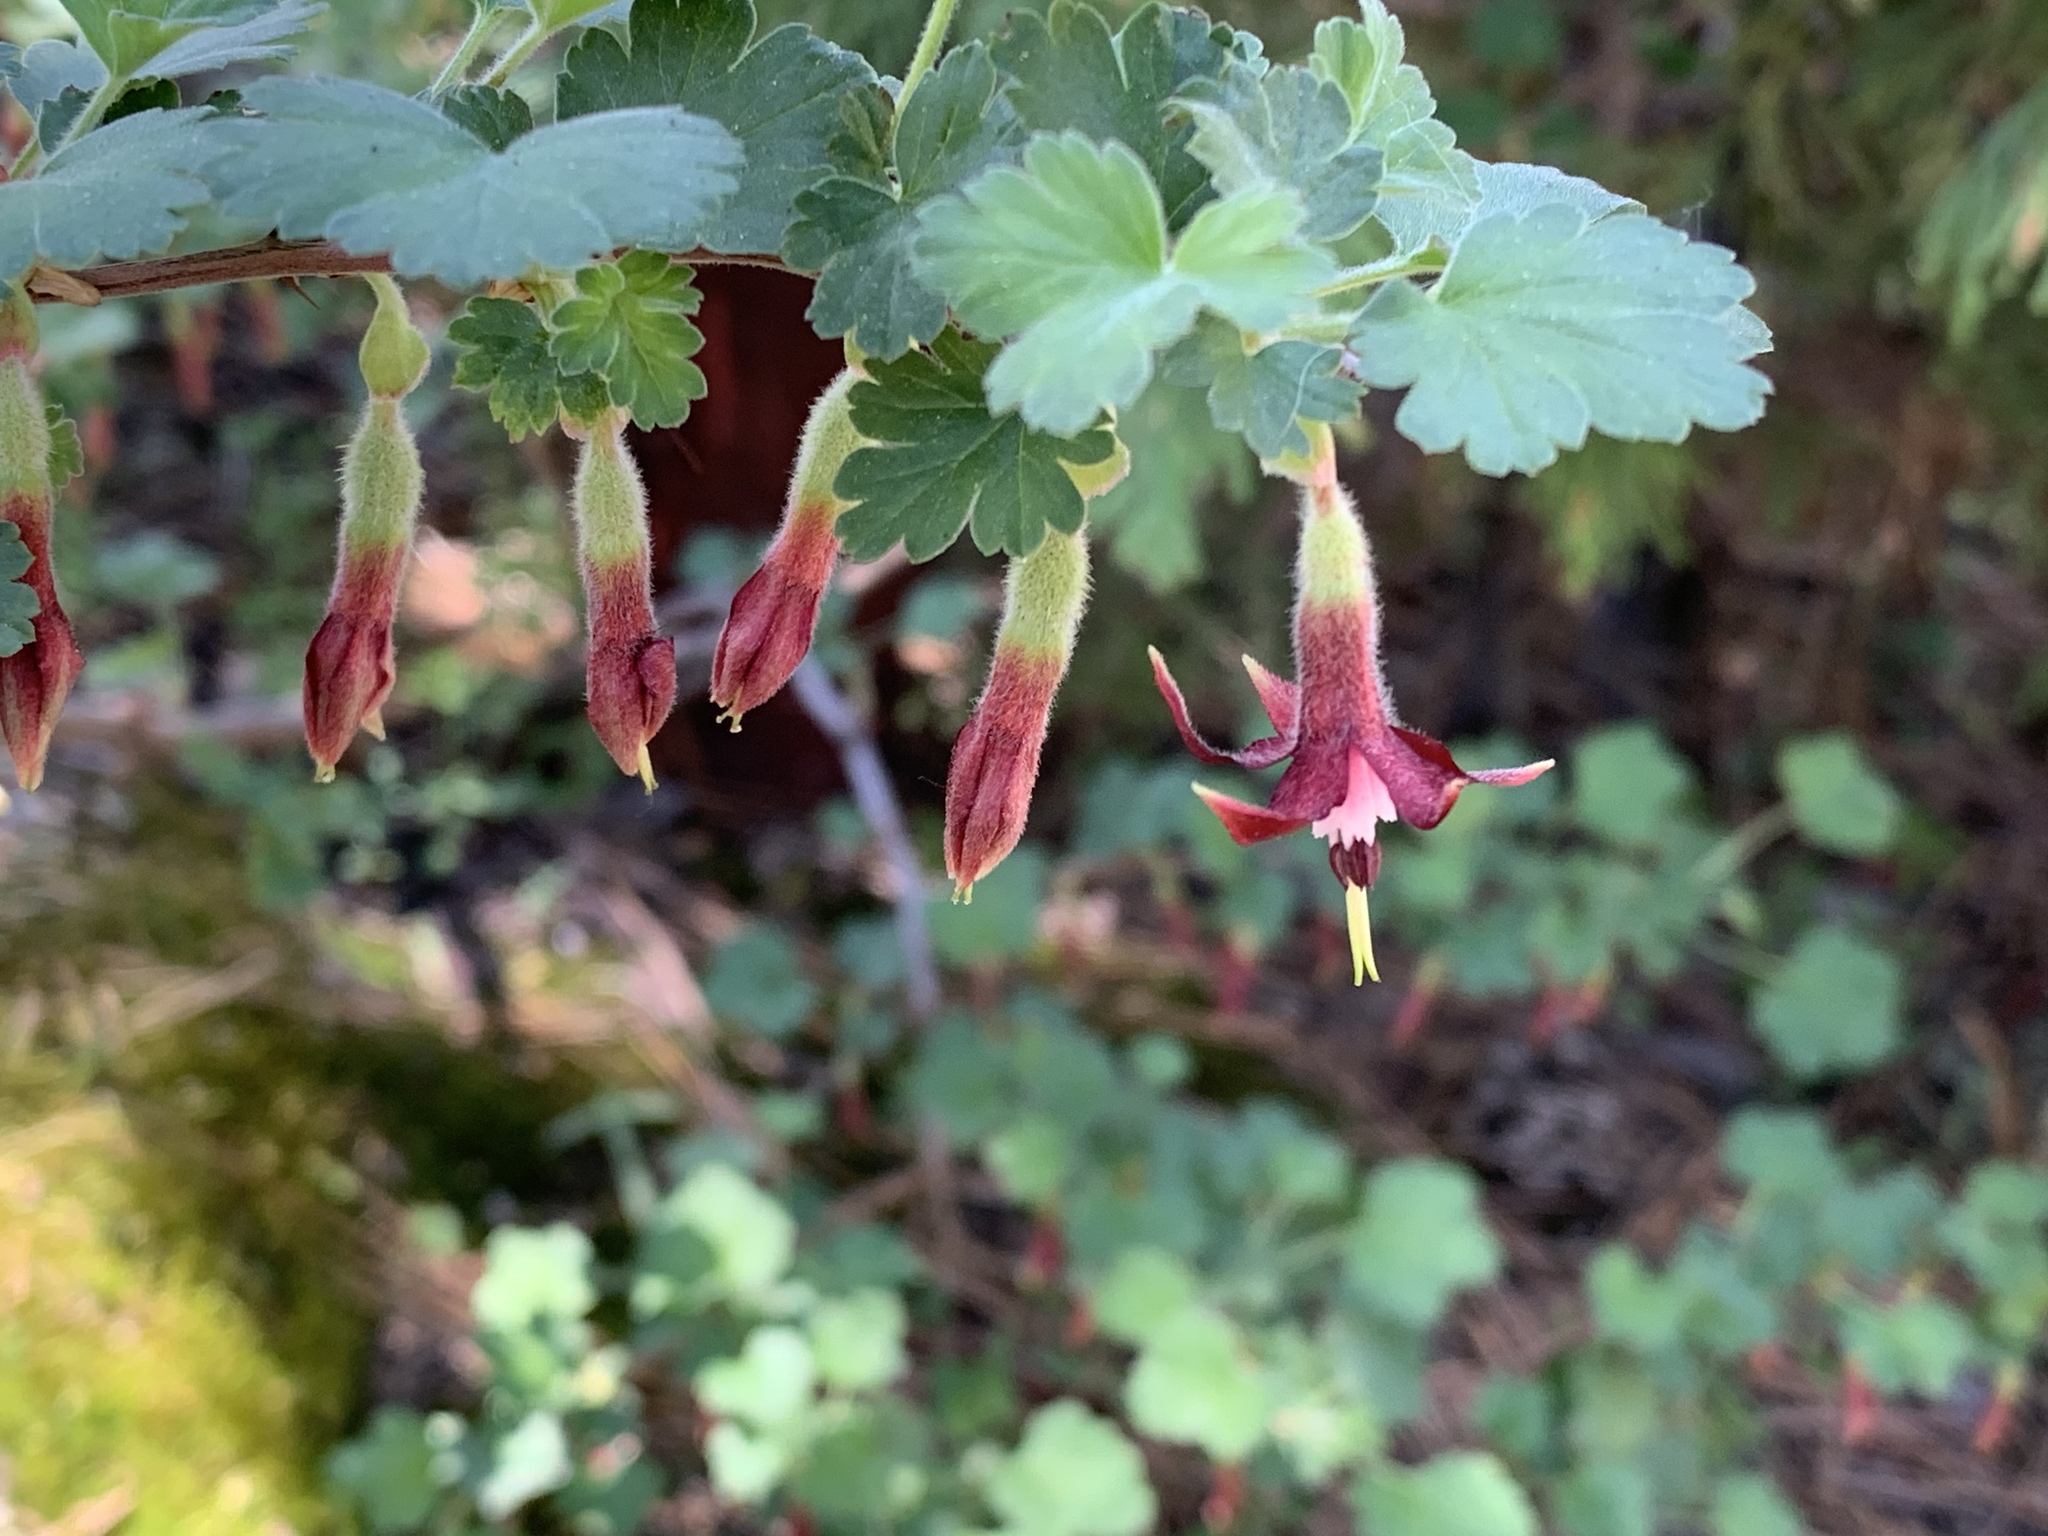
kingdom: Plantae
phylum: Tracheophyta
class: Magnoliopsida
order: Saxifragales
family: Grossulariaceae
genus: Ribes
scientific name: Ribes roezlii
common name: Sierra gooseberry
